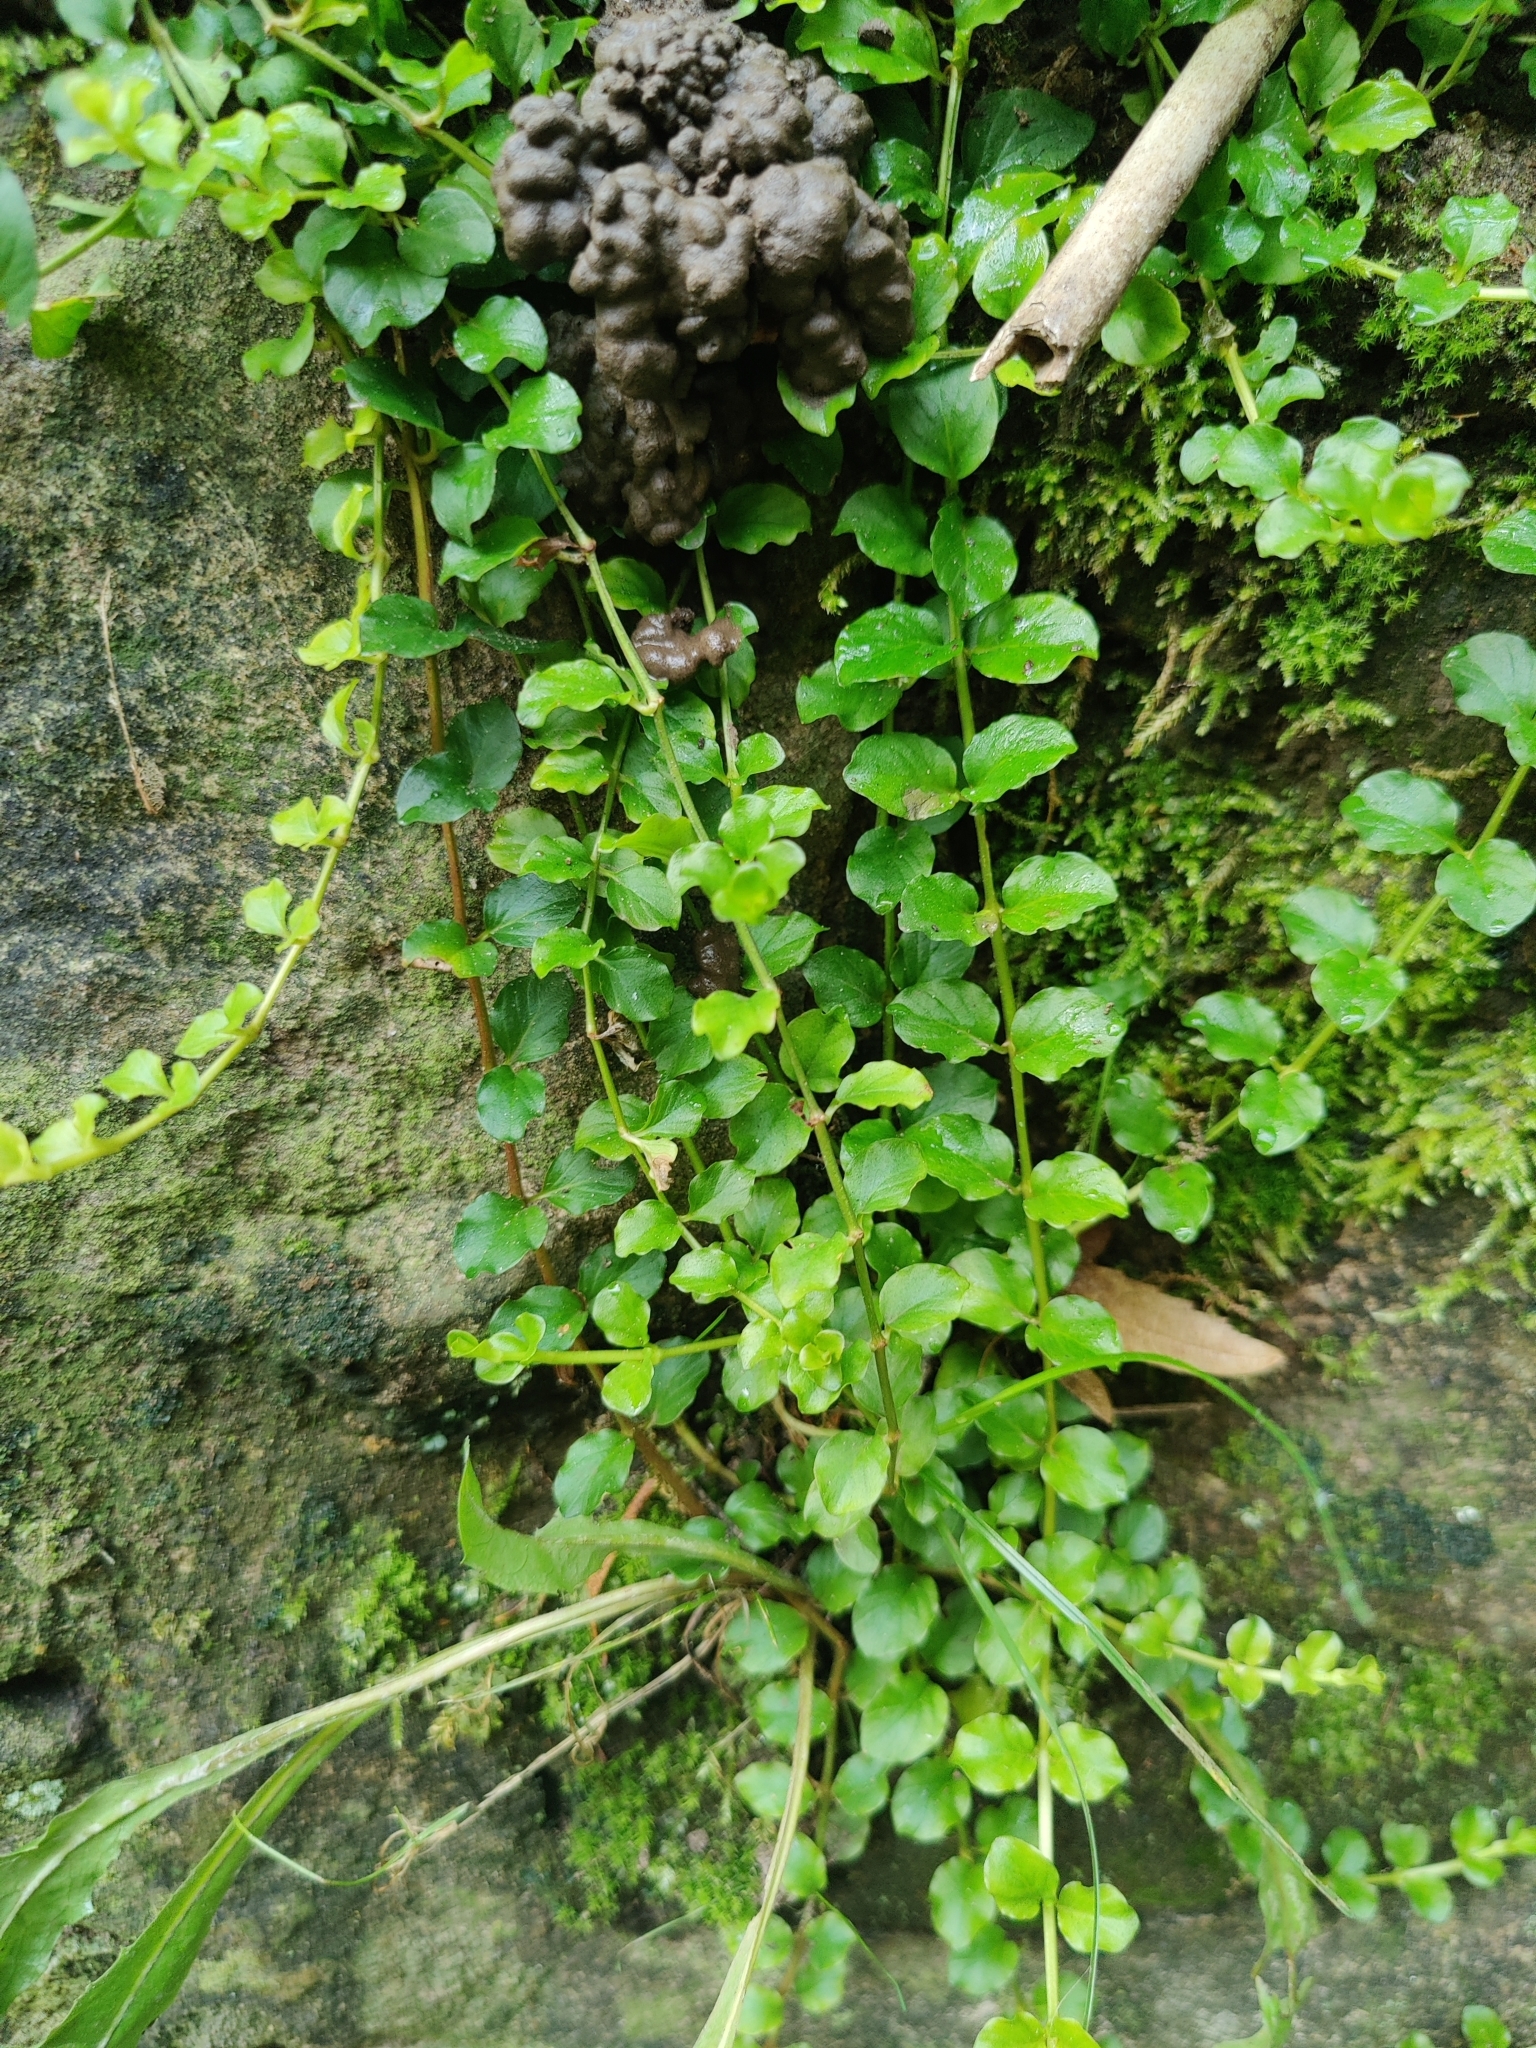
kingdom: Plantae
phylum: Tracheophyta
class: Magnoliopsida
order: Ericales
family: Primulaceae
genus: Lysimachia
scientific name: Lysimachia nummularia
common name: Moneywort
